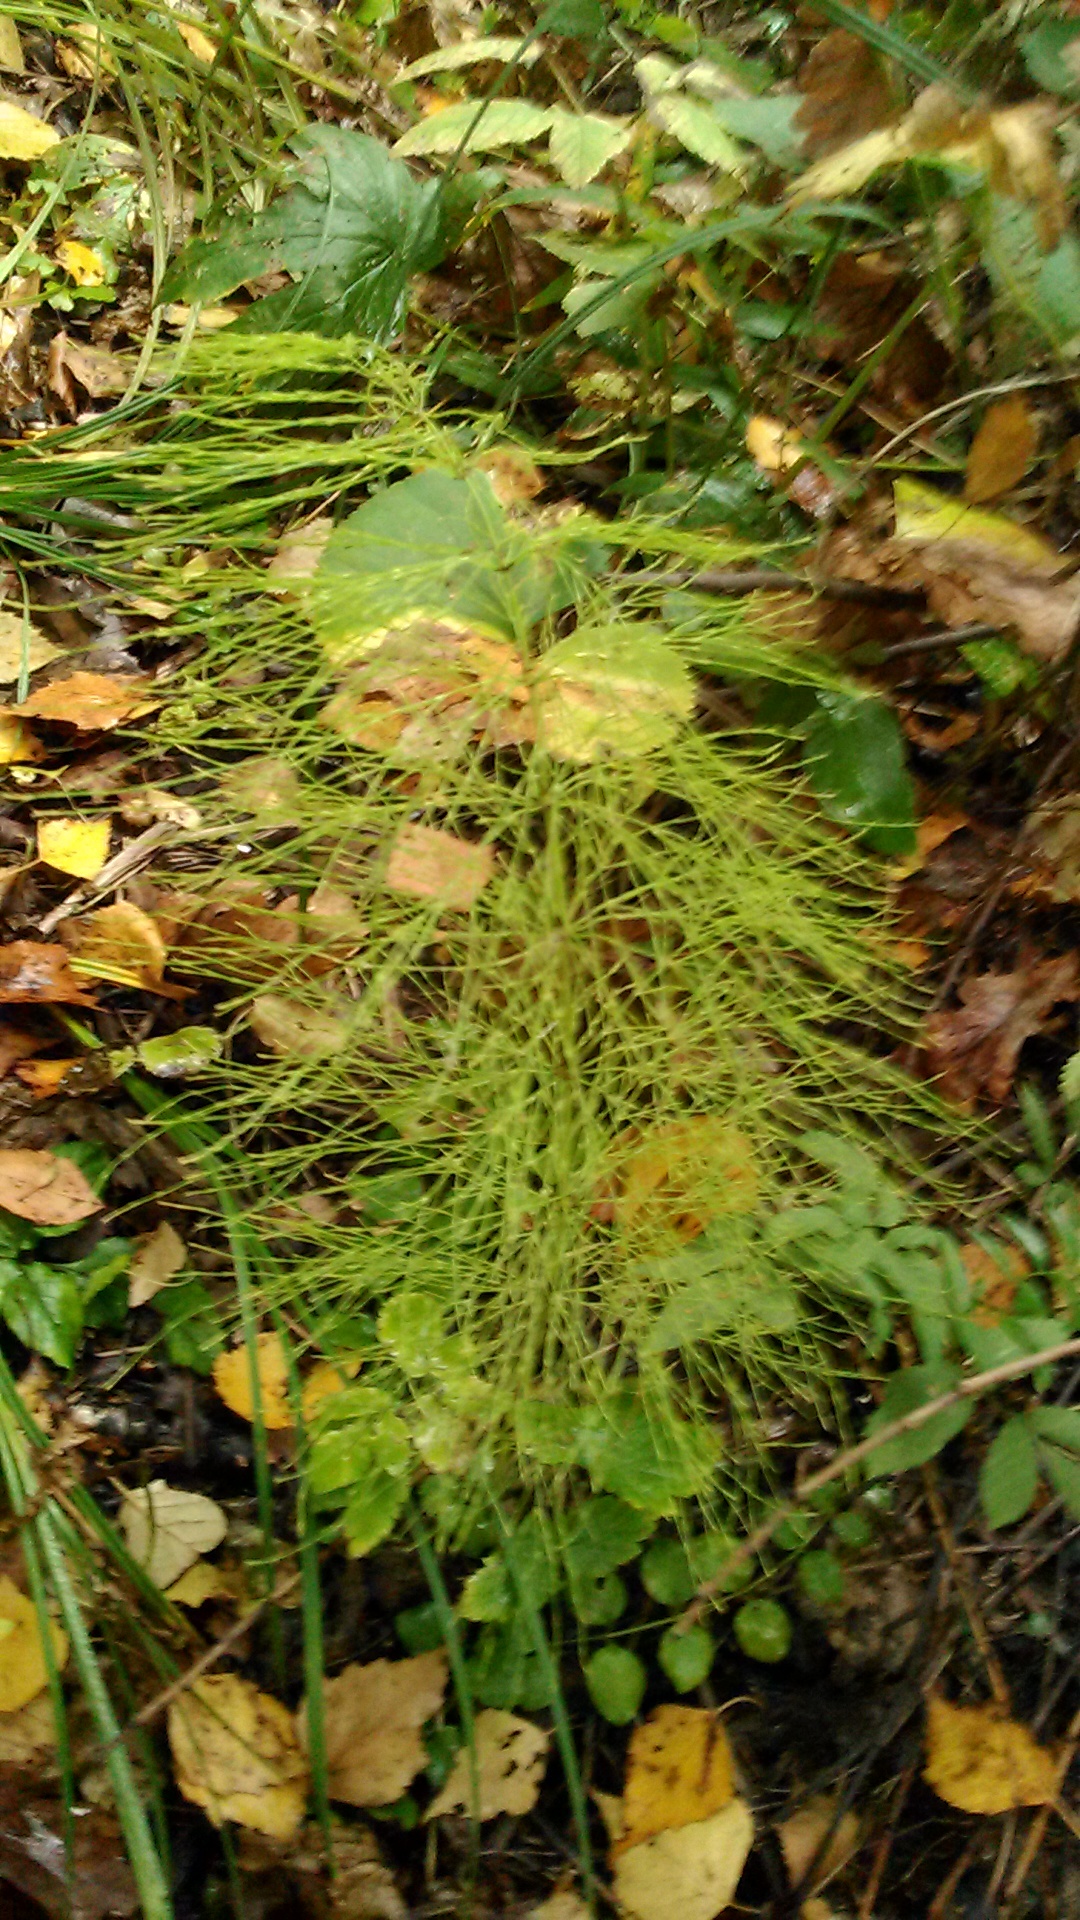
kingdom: Plantae
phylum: Tracheophyta
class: Polypodiopsida
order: Equisetales
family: Equisetaceae
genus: Equisetum
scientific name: Equisetum sylvaticum
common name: Wood horsetail
